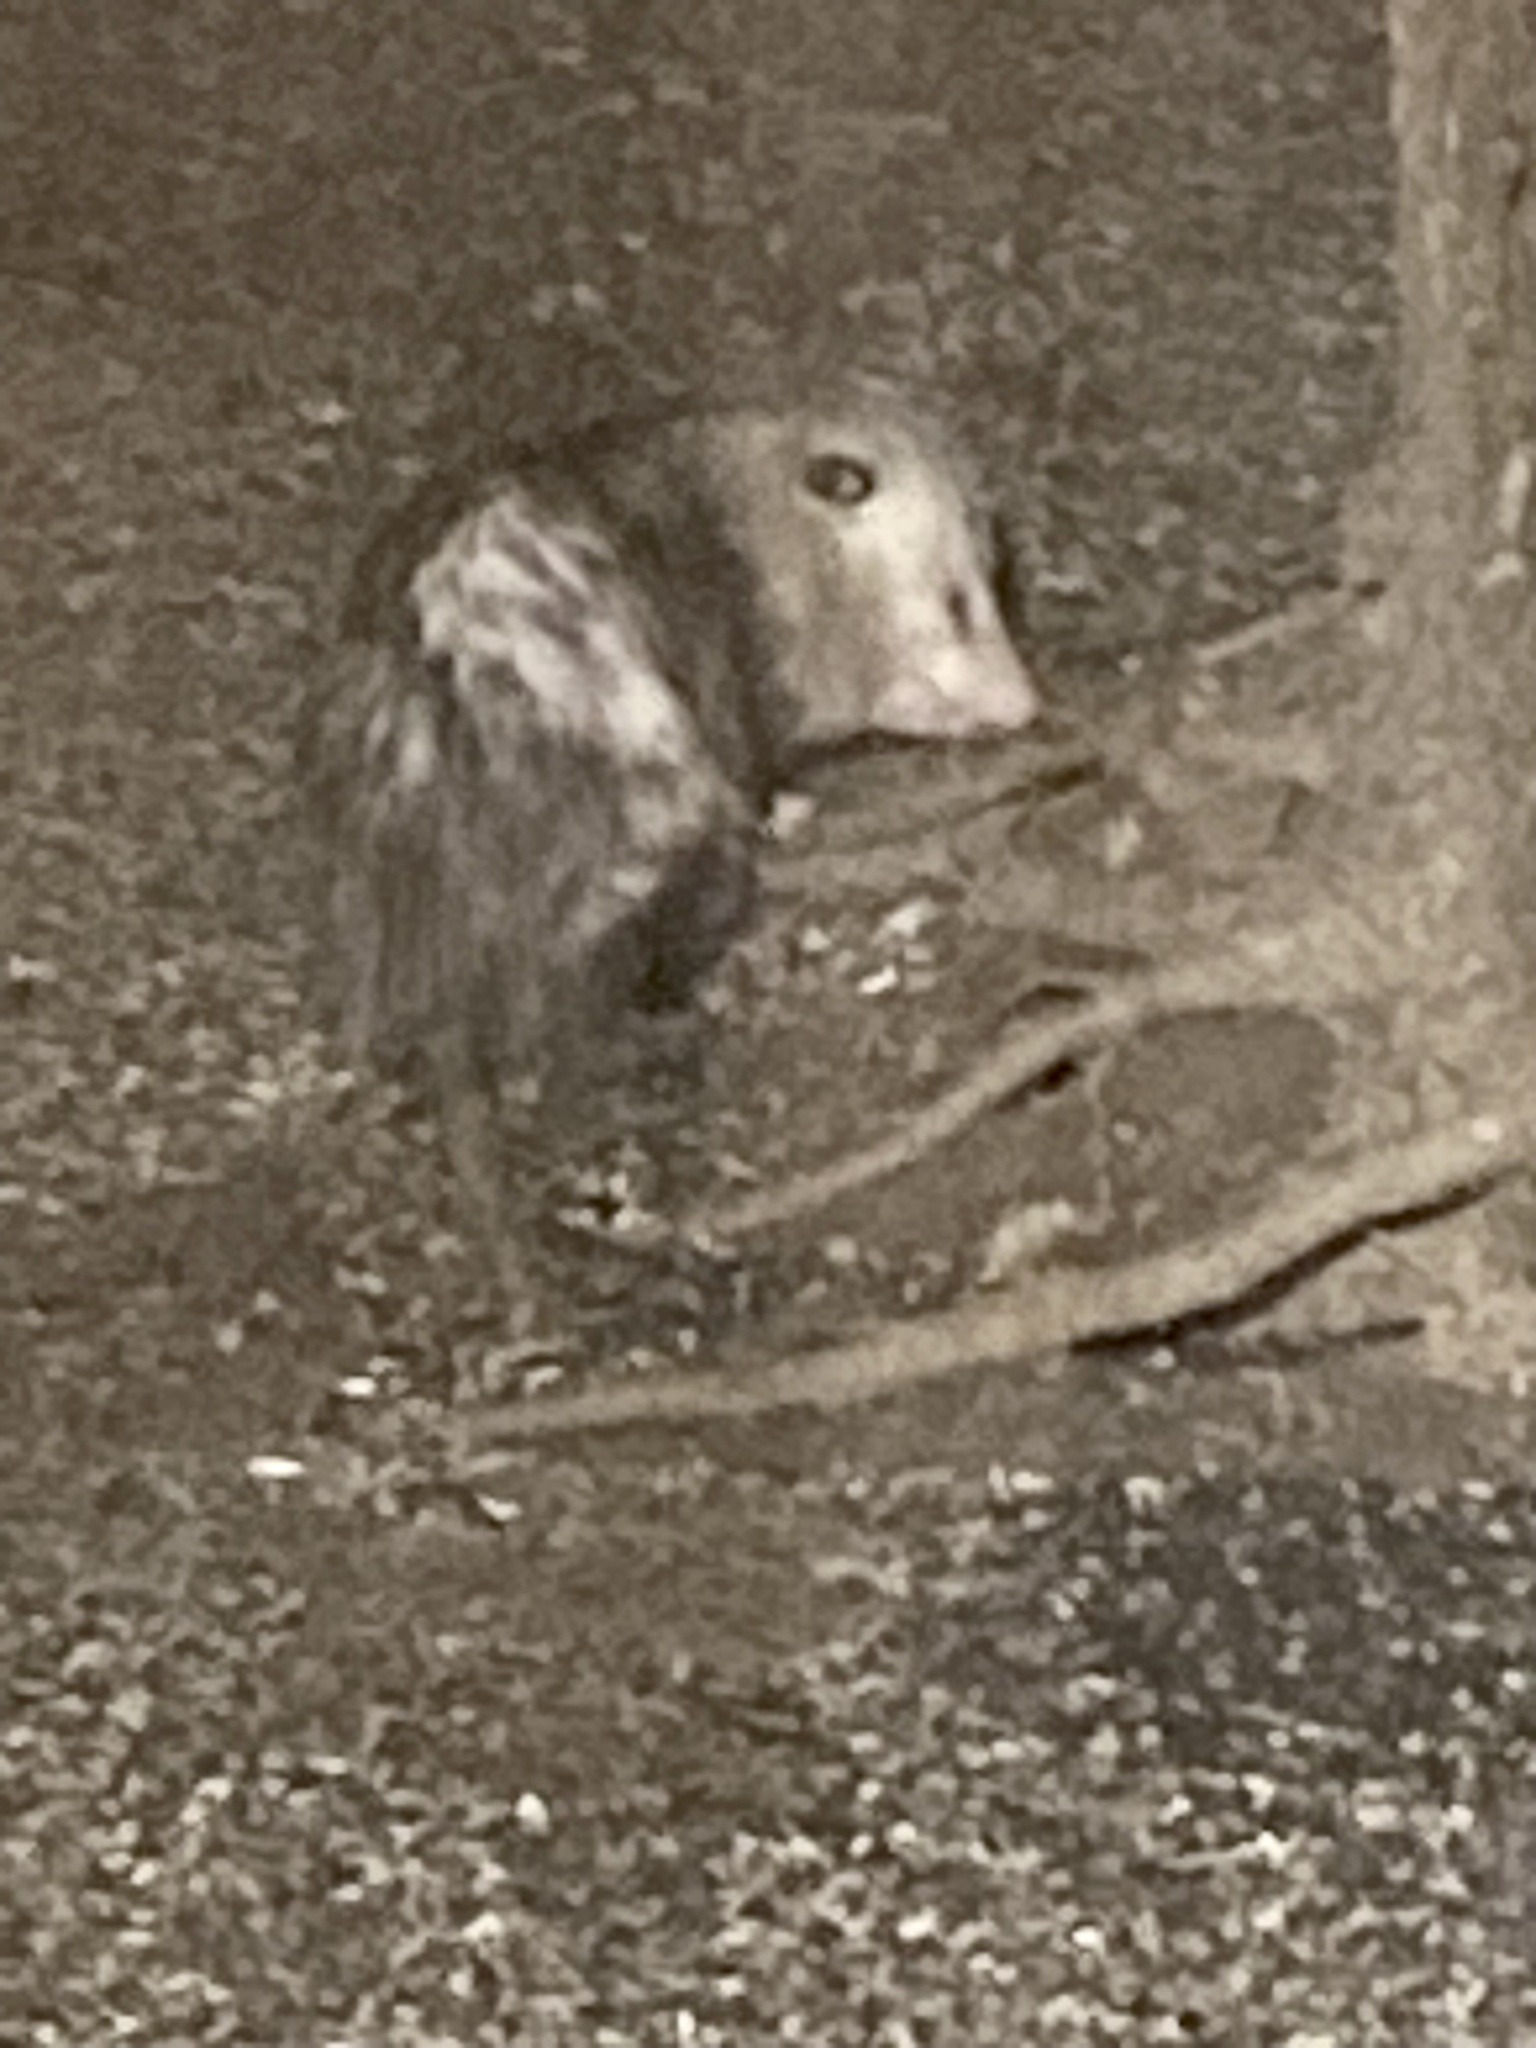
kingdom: Animalia
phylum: Chordata
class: Mammalia
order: Didelphimorphia
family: Didelphidae
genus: Didelphis
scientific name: Didelphis virginiana
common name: Virginia opossum
